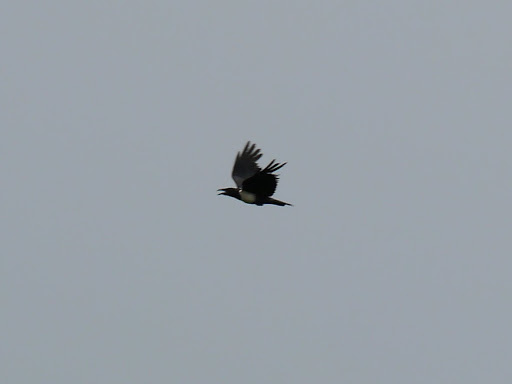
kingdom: Animalia
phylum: Chordata
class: Aves
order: Passeriformes
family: Corvidae
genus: Corvus
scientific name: Corvus albus
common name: Pied crow
